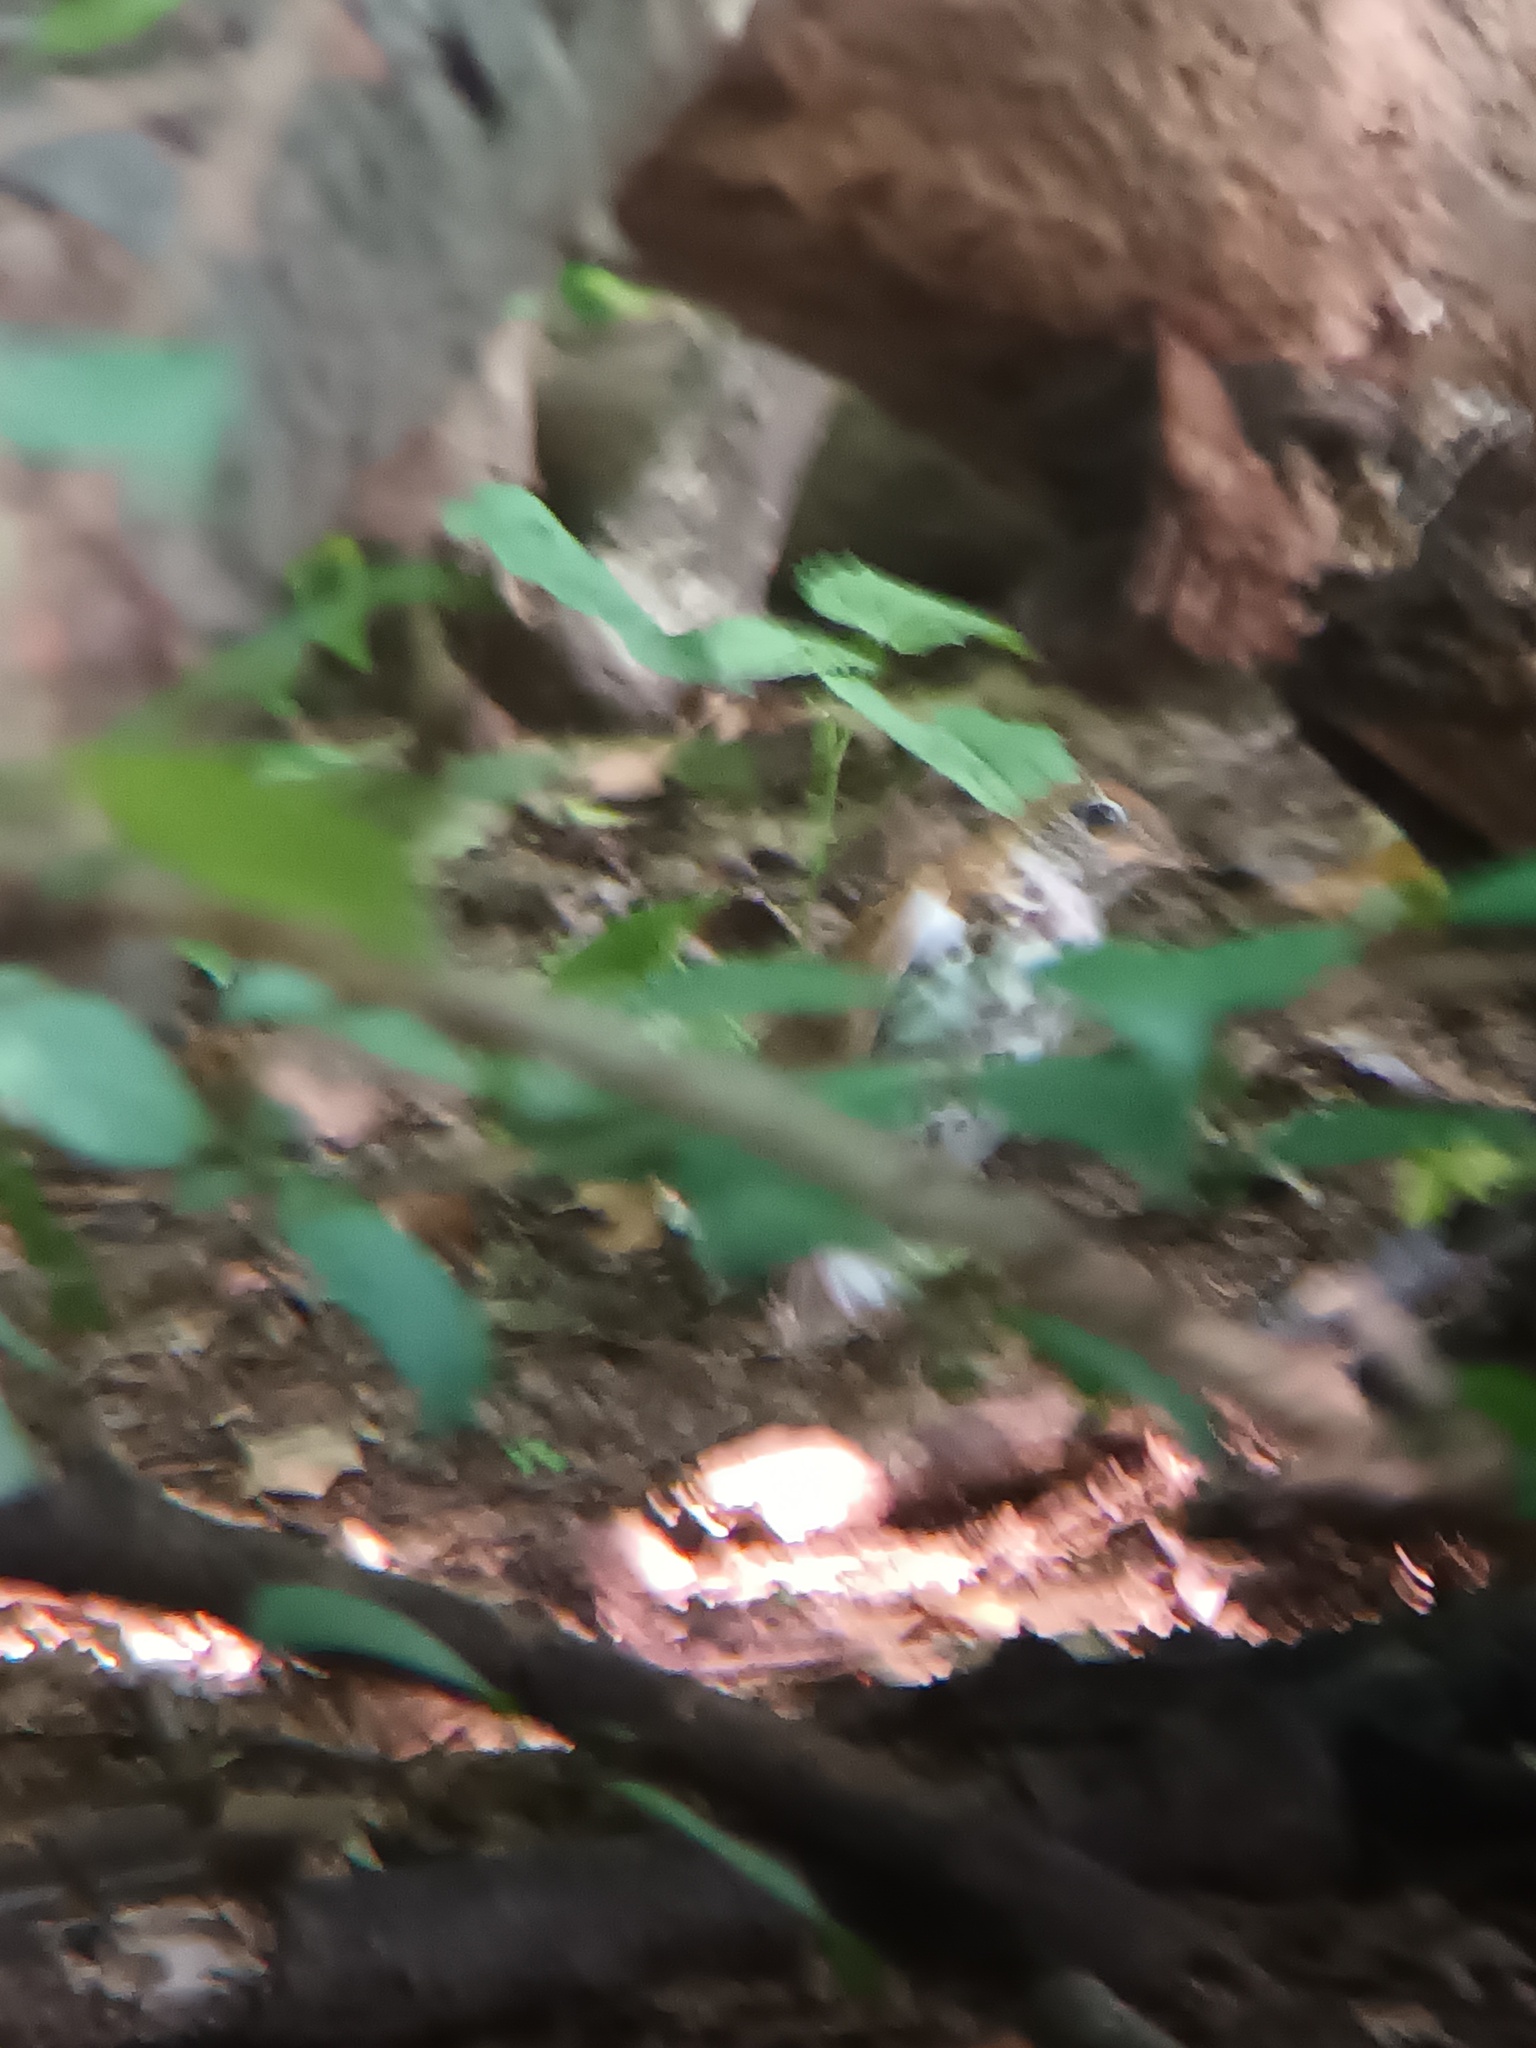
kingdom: Animalia
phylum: Chordata
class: Aves
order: Passeriformes
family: Turdidae
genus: Hylocichla
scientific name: Hylocichla mustelina
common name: Wood thrush
